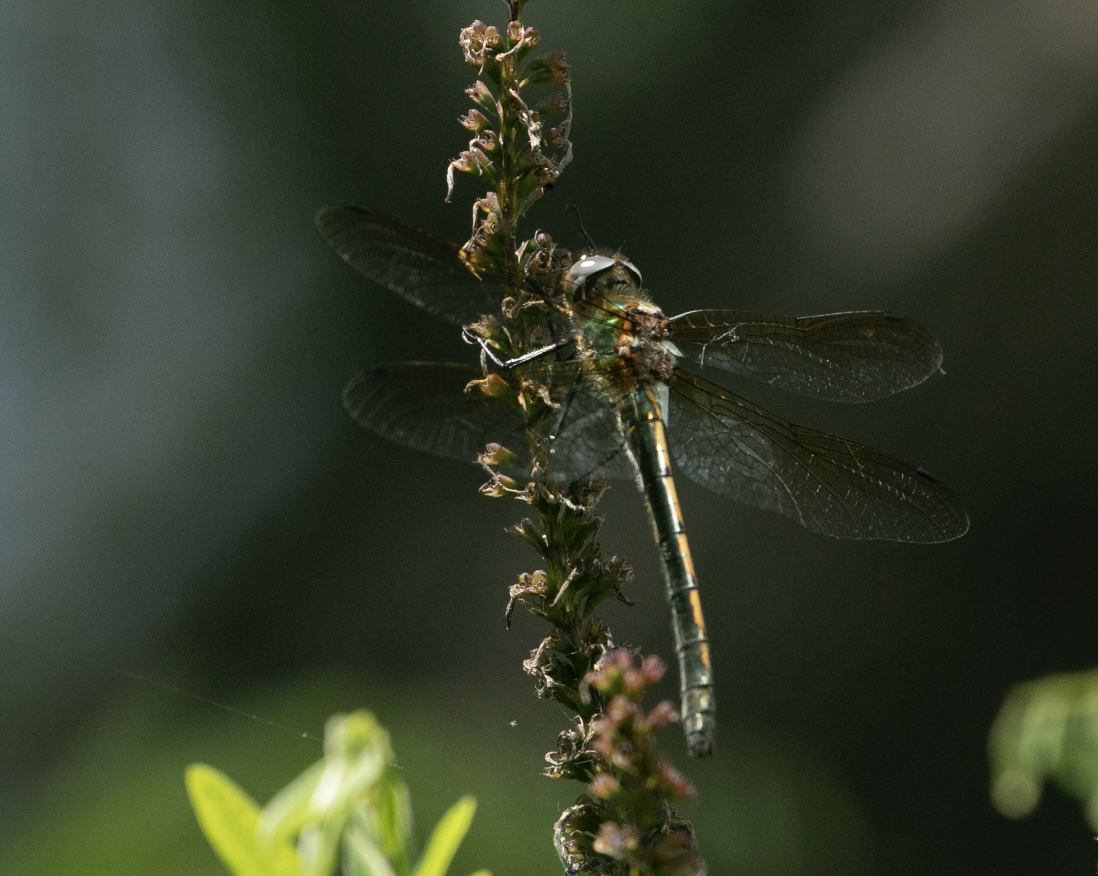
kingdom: Animalia
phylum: Arthropoda
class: Insecta
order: Odonata
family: Corduliidae
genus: Oxygastra
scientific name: Oxygastra curtisii
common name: Orange-spotted emerald
